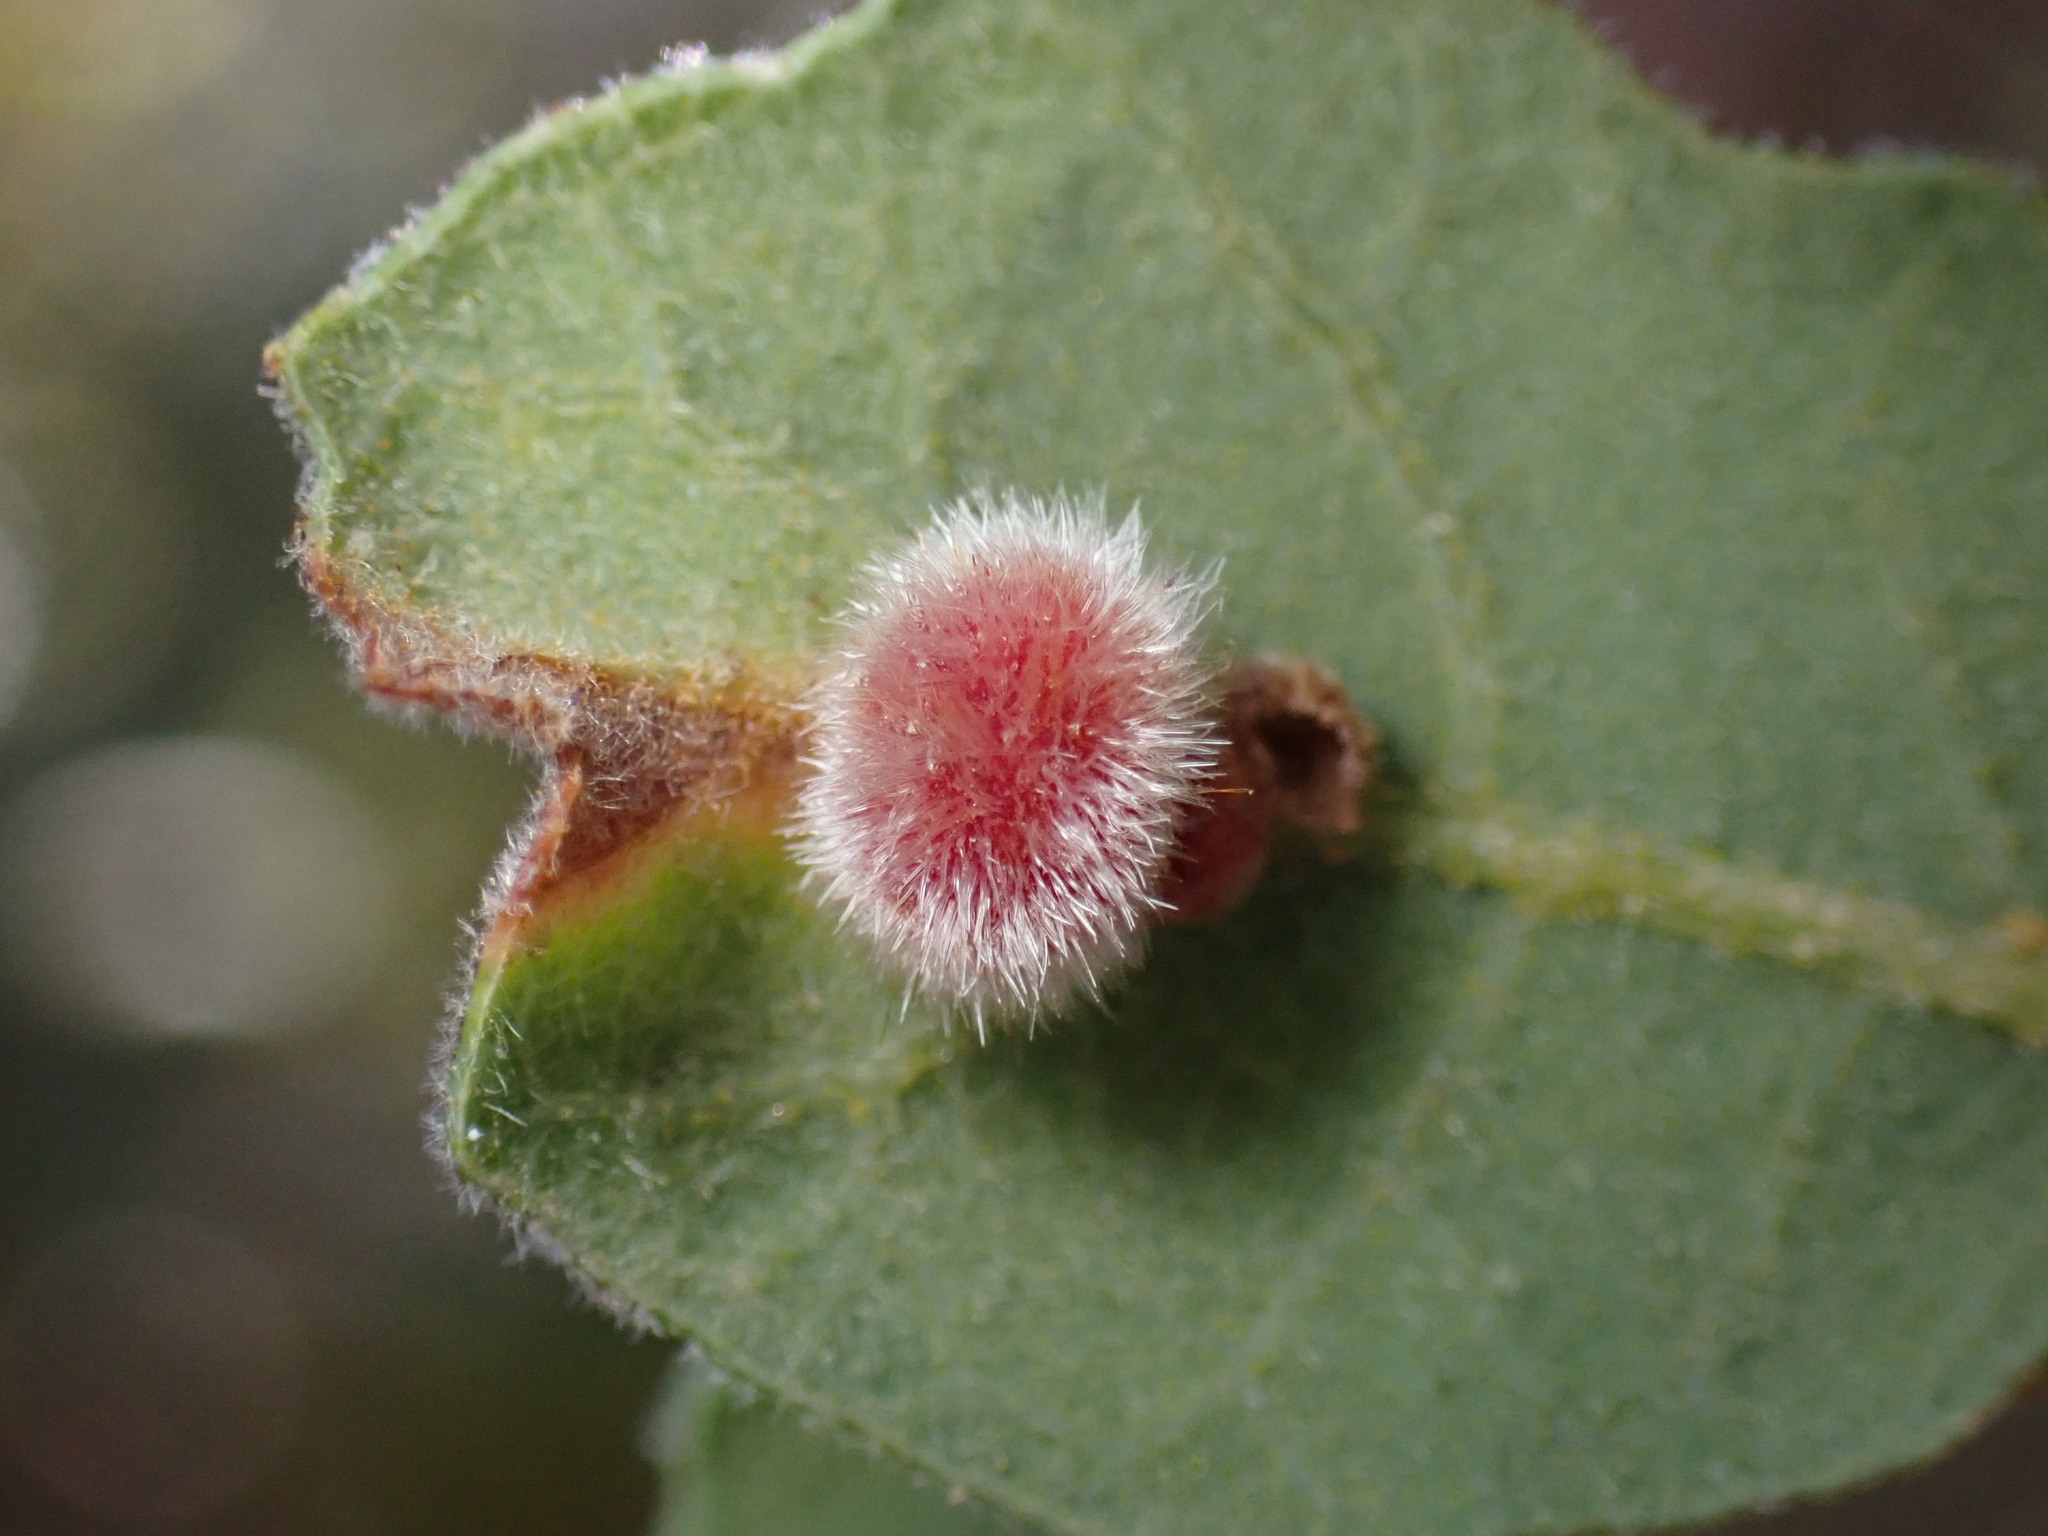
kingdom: Animalia
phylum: Arthropoda
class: Insecta
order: Hymenoptera
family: Cynipidae
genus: Atrusca
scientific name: Atrusca
